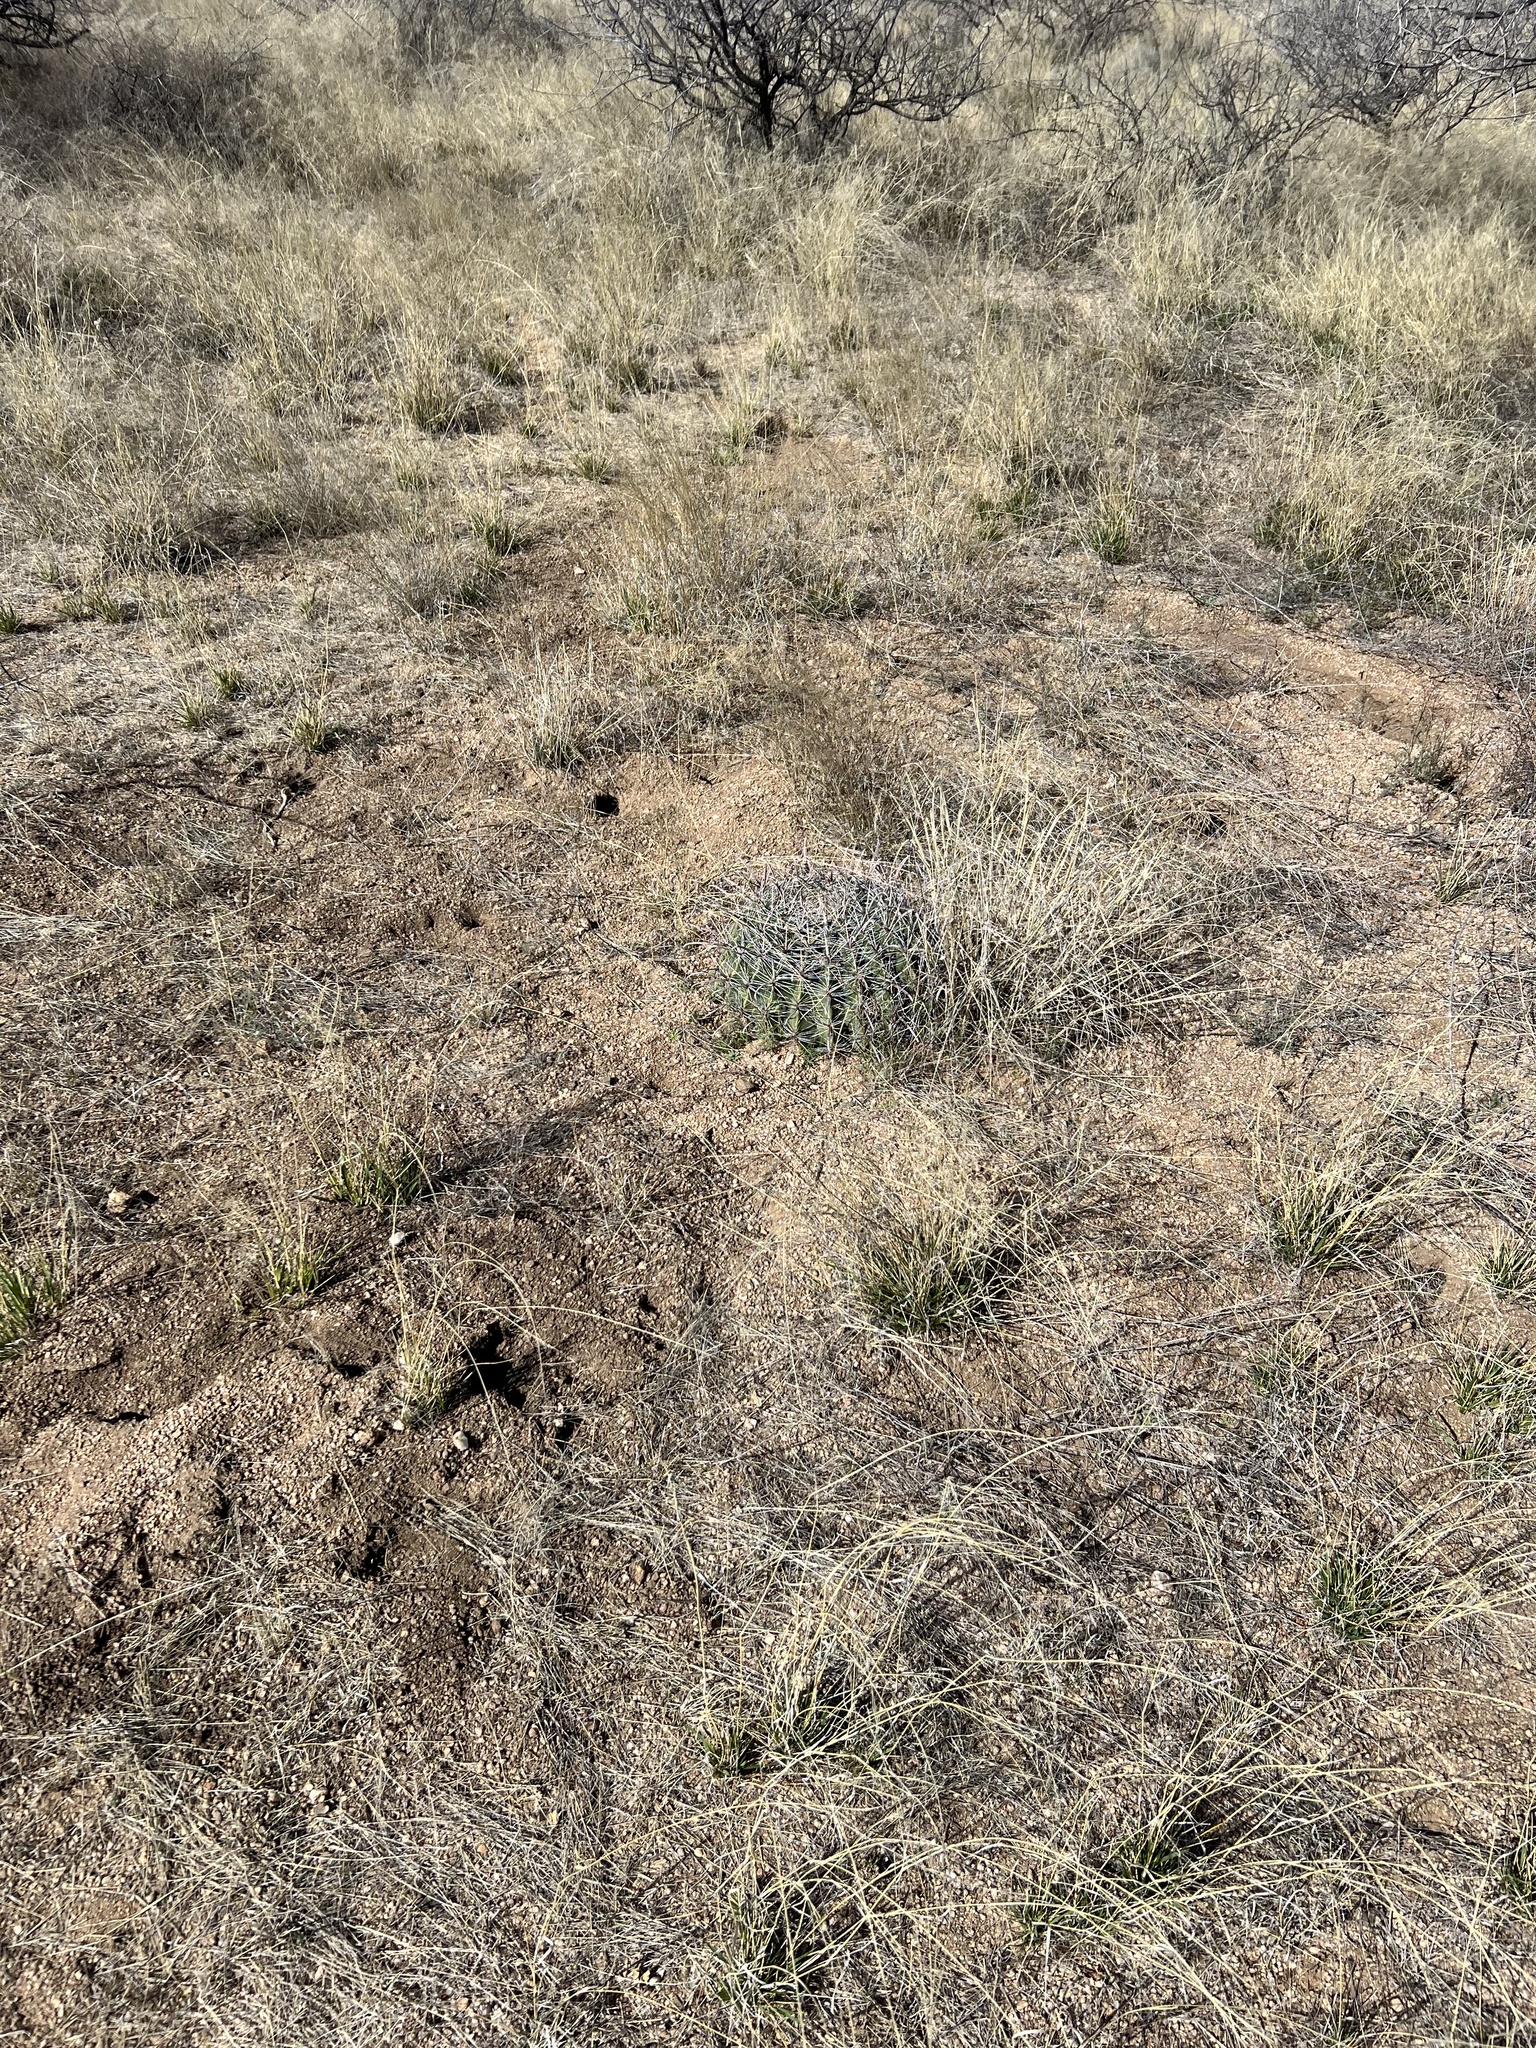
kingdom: Plantae
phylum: Tracheophyta
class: Magnoliopsida
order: Caryophyllales
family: Cactaceae
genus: Ferocactus
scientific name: Ferocactus wislizeni
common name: Candy barrel cactus
